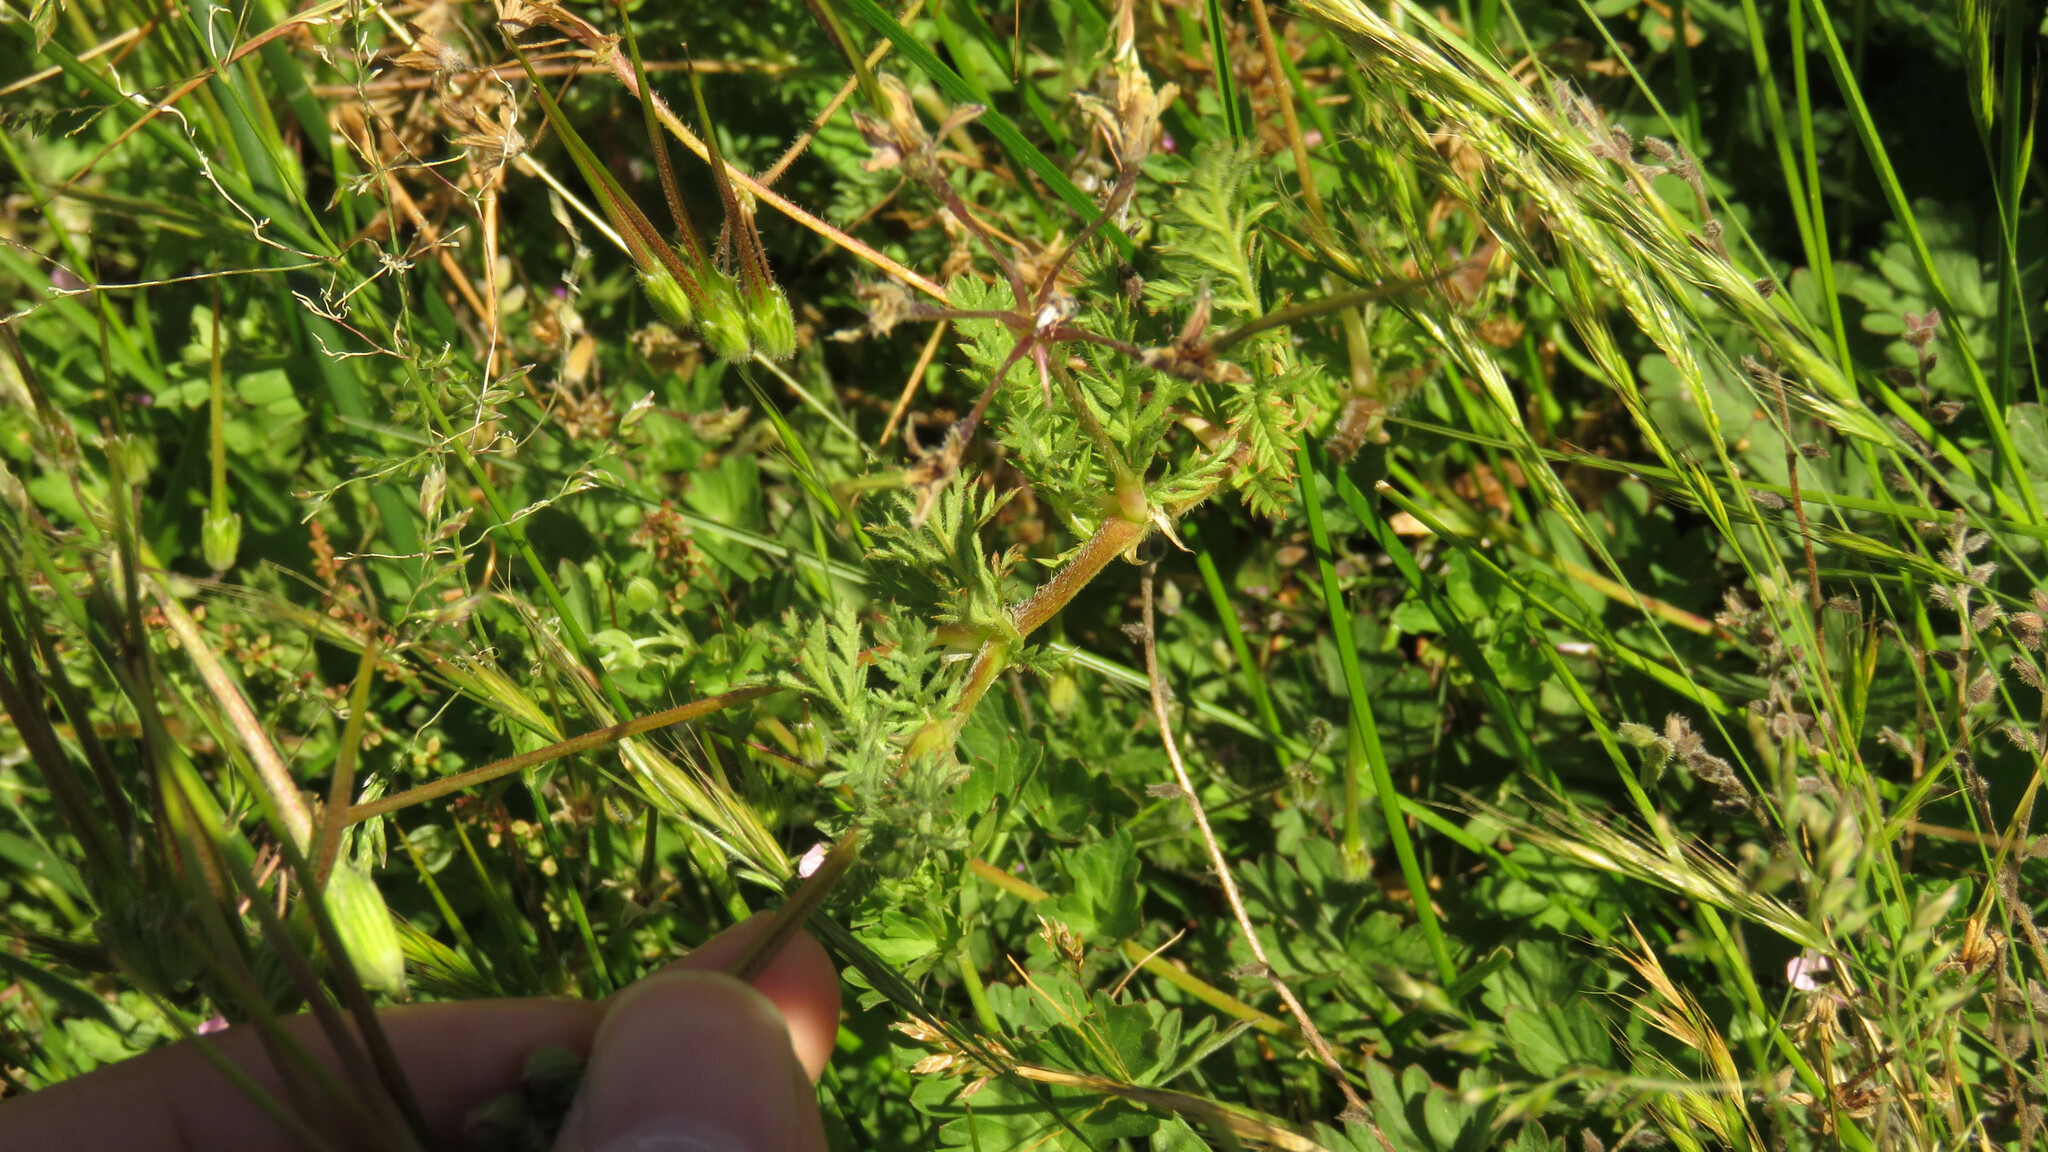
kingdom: Plantae
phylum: Tracheophyta
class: Magnoliopsida
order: Geraniales
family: Geraniaceae
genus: Erodium
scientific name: Erodium cicutarium
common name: Common stork's-bill
